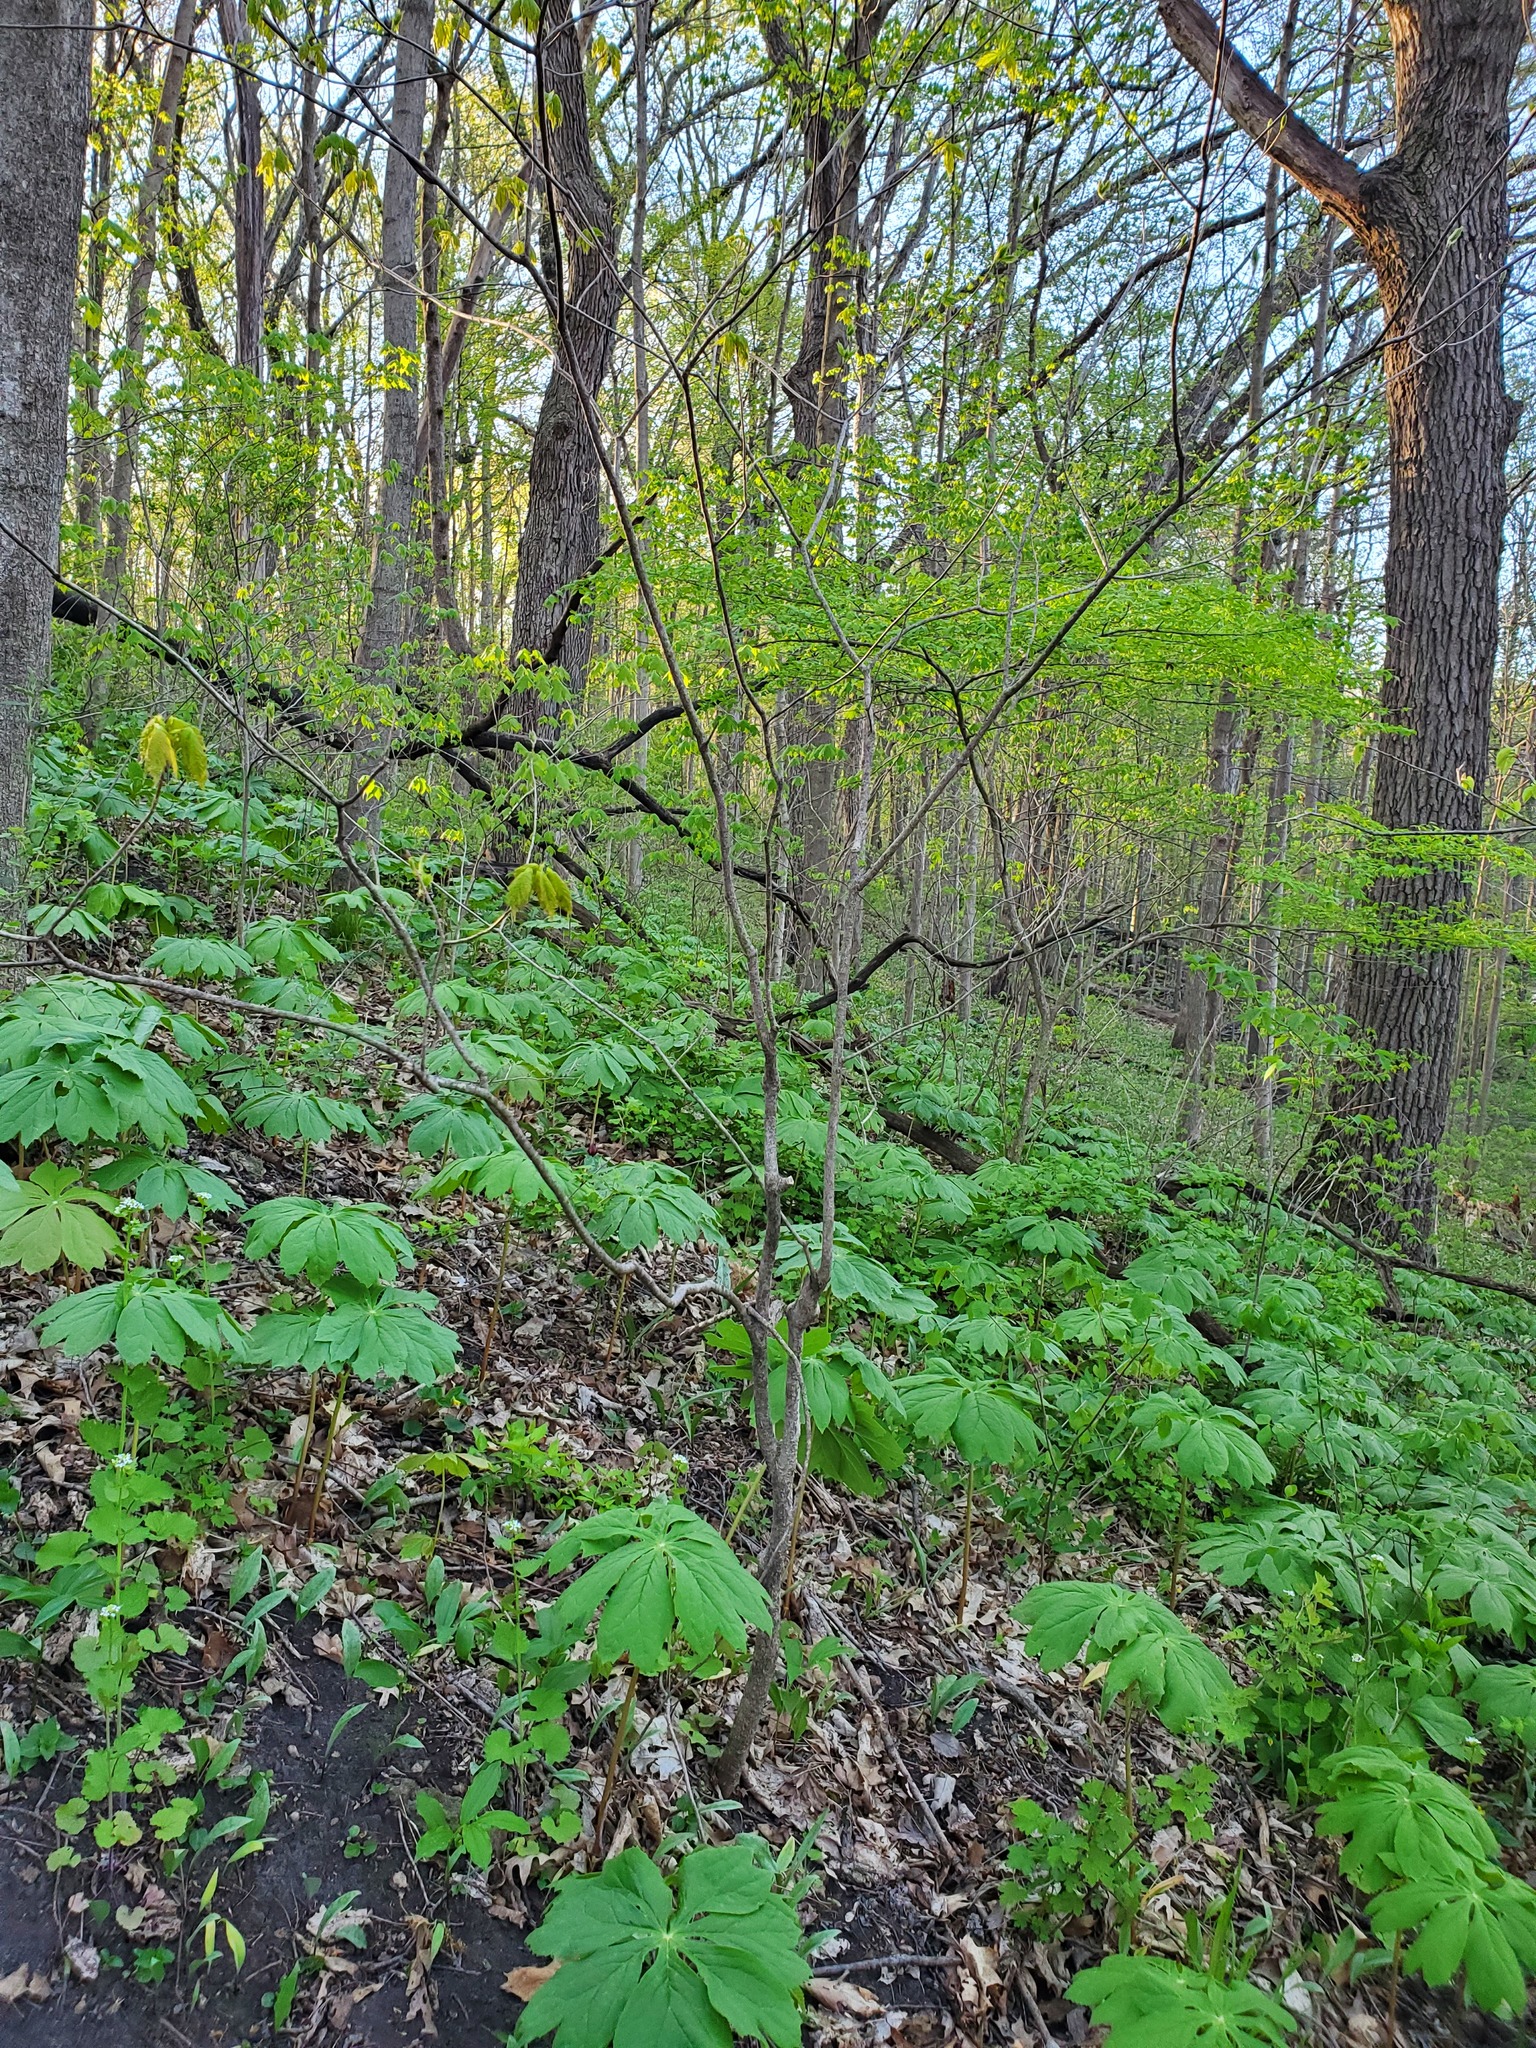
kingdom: Plantae
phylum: Tracheophyta
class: Magnoliopsida
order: Ranunculales
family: Berberidaceae
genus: Podophyllum
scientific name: Podophyllum peltatum
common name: Wild mandrake
